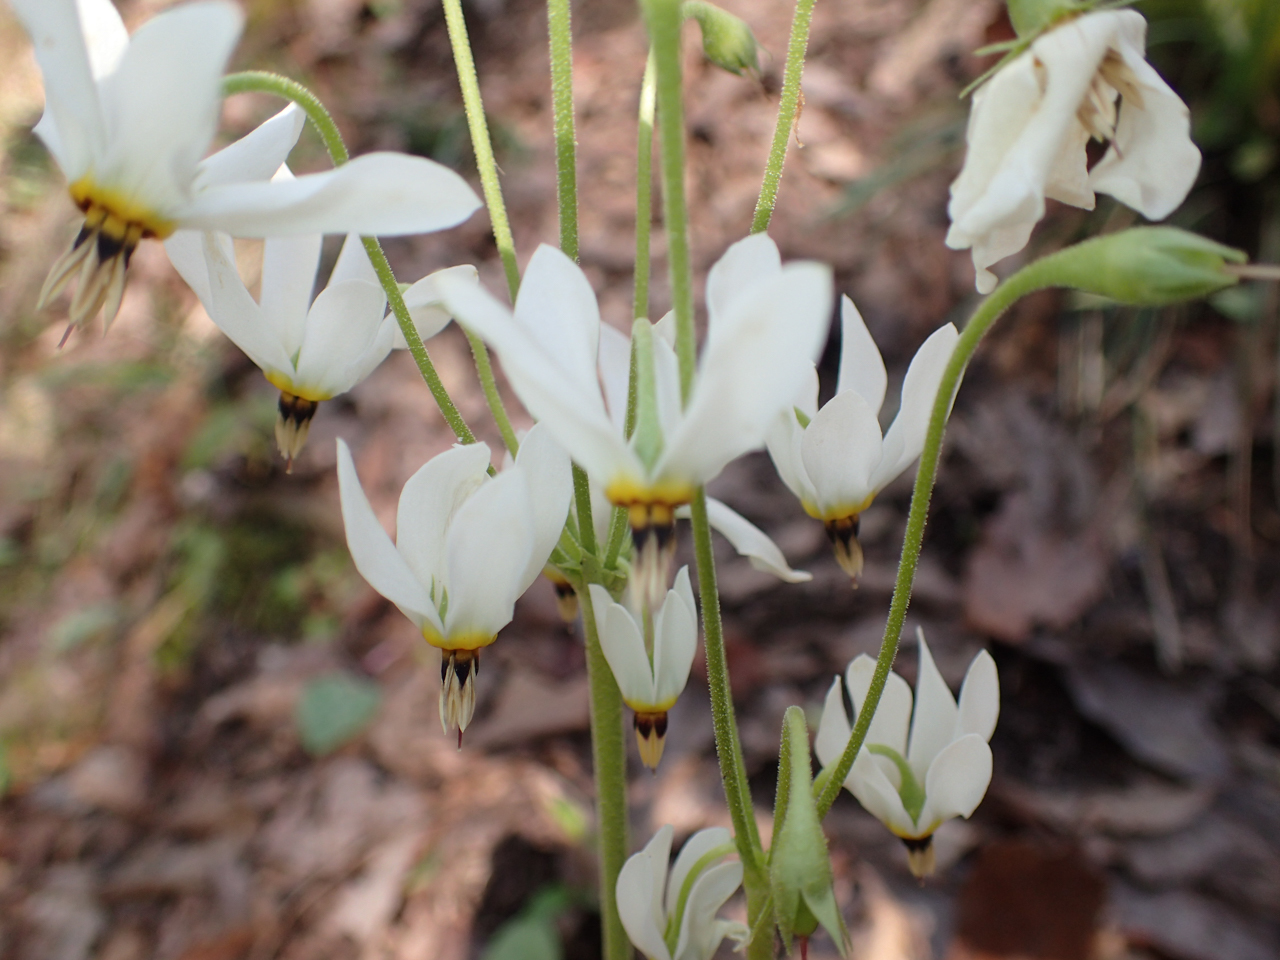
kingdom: Plantae
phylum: Tracheophyta
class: Magnoliopsida
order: Ericales
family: Primulaceae
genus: Dodecatheon
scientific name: Dodecatheon meadia
